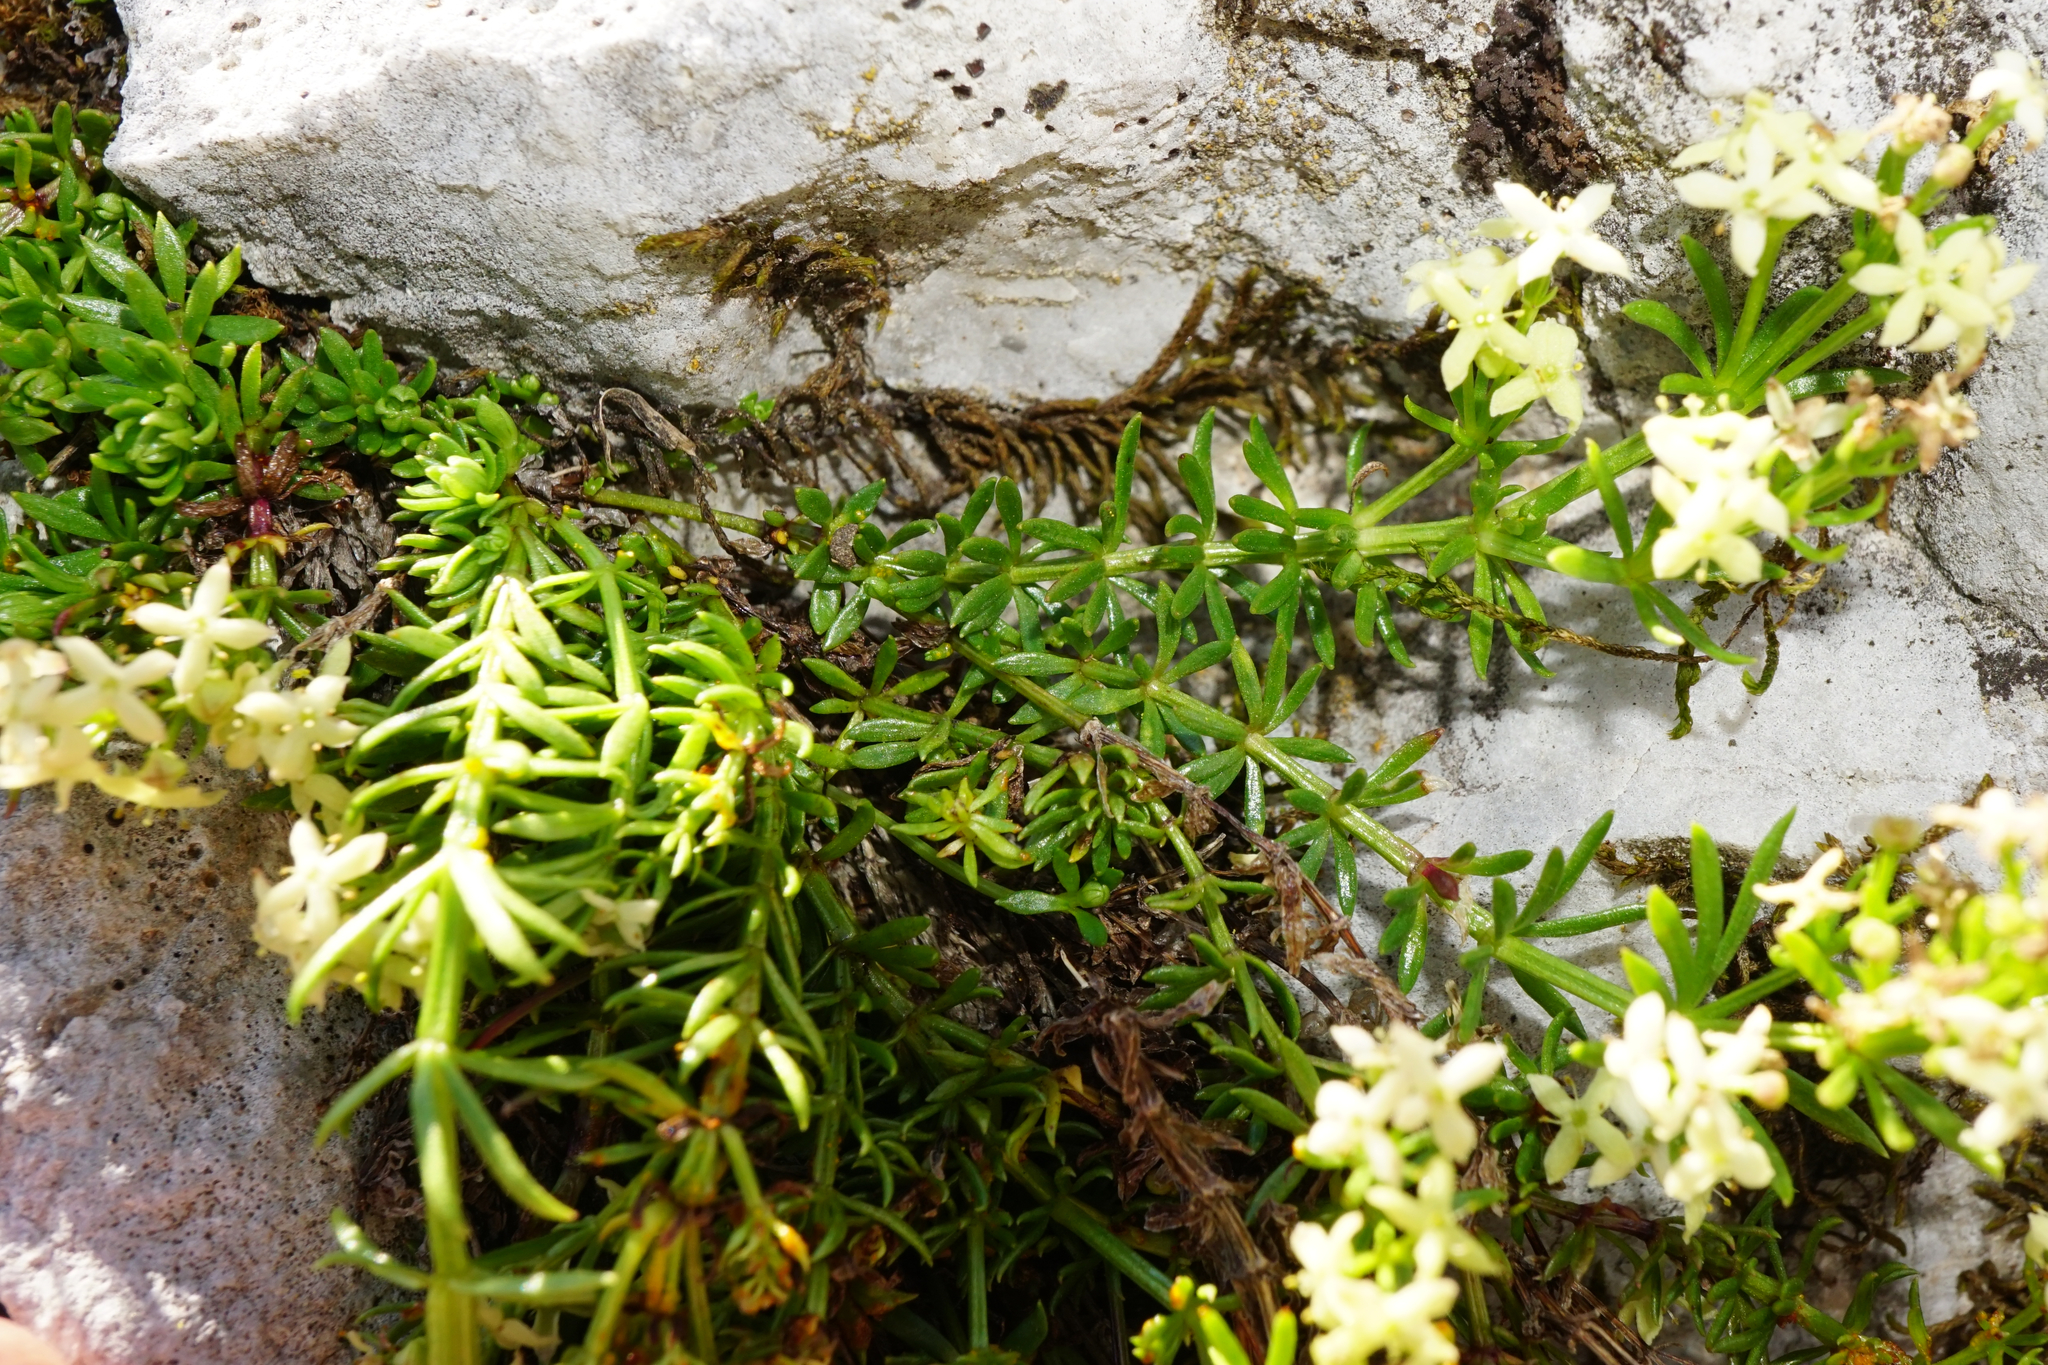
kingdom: Plantae
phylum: Tracheophyta
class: Magnoliopsida
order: Gentianales
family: Rubiaceae
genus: Galium
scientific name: Galium noricum
